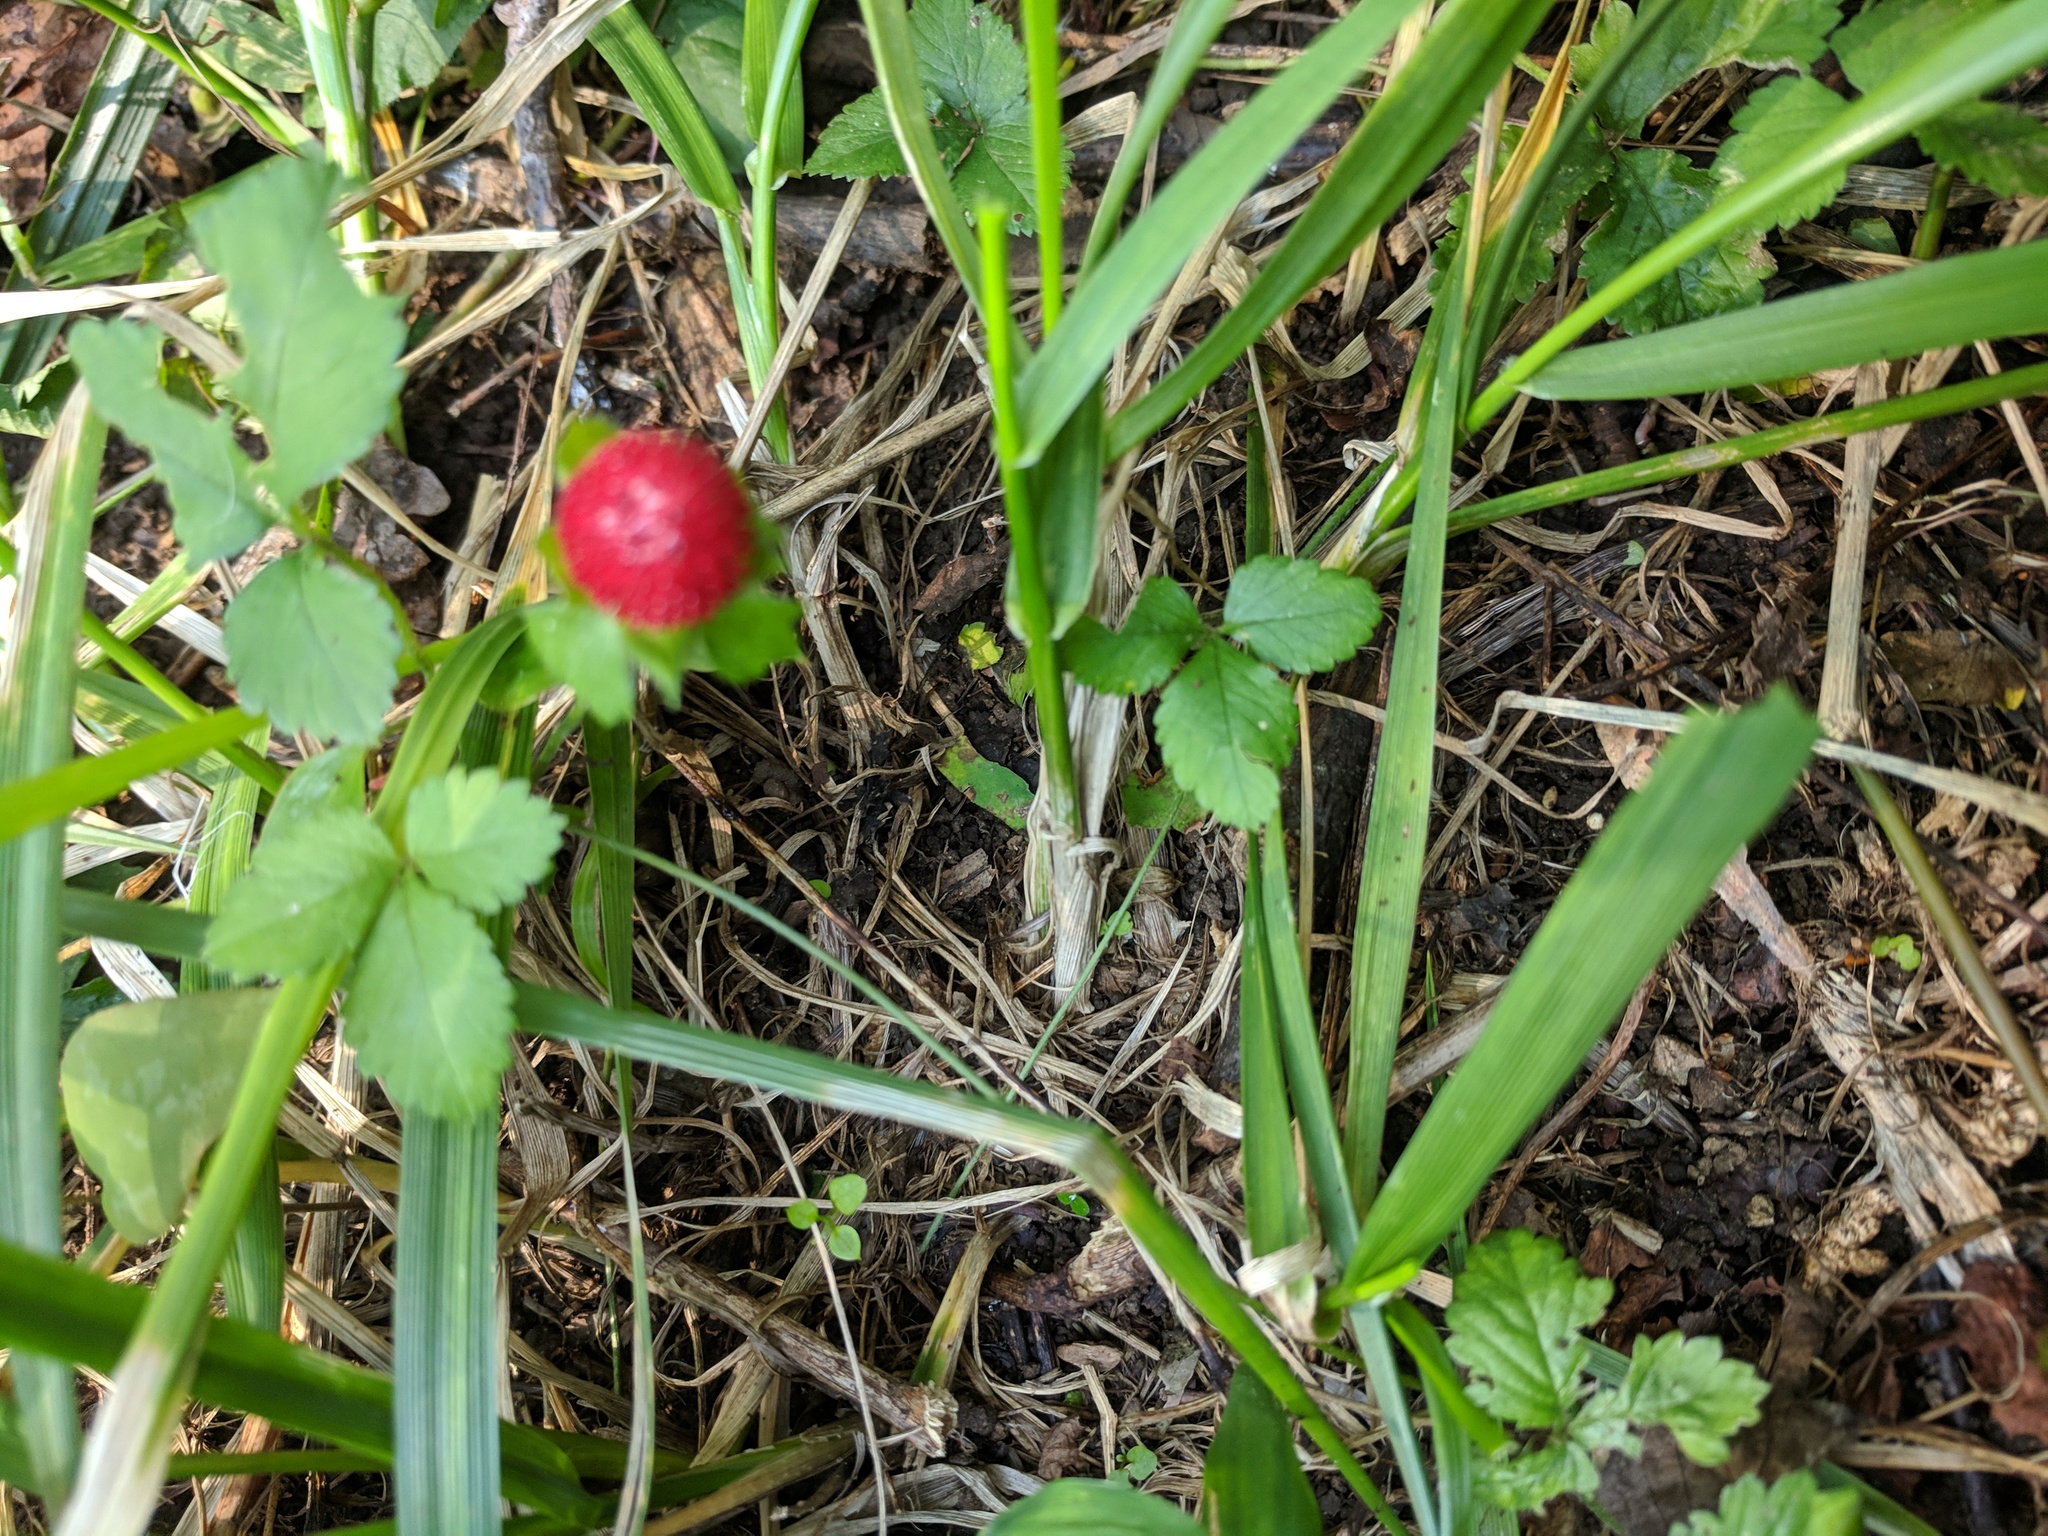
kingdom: Plantae
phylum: Tracheophyta
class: Magnoliopsida
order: Rosales
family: Rosaceae
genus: Potentilla
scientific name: Potentilla indica
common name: Yellow-flowered strawberry
